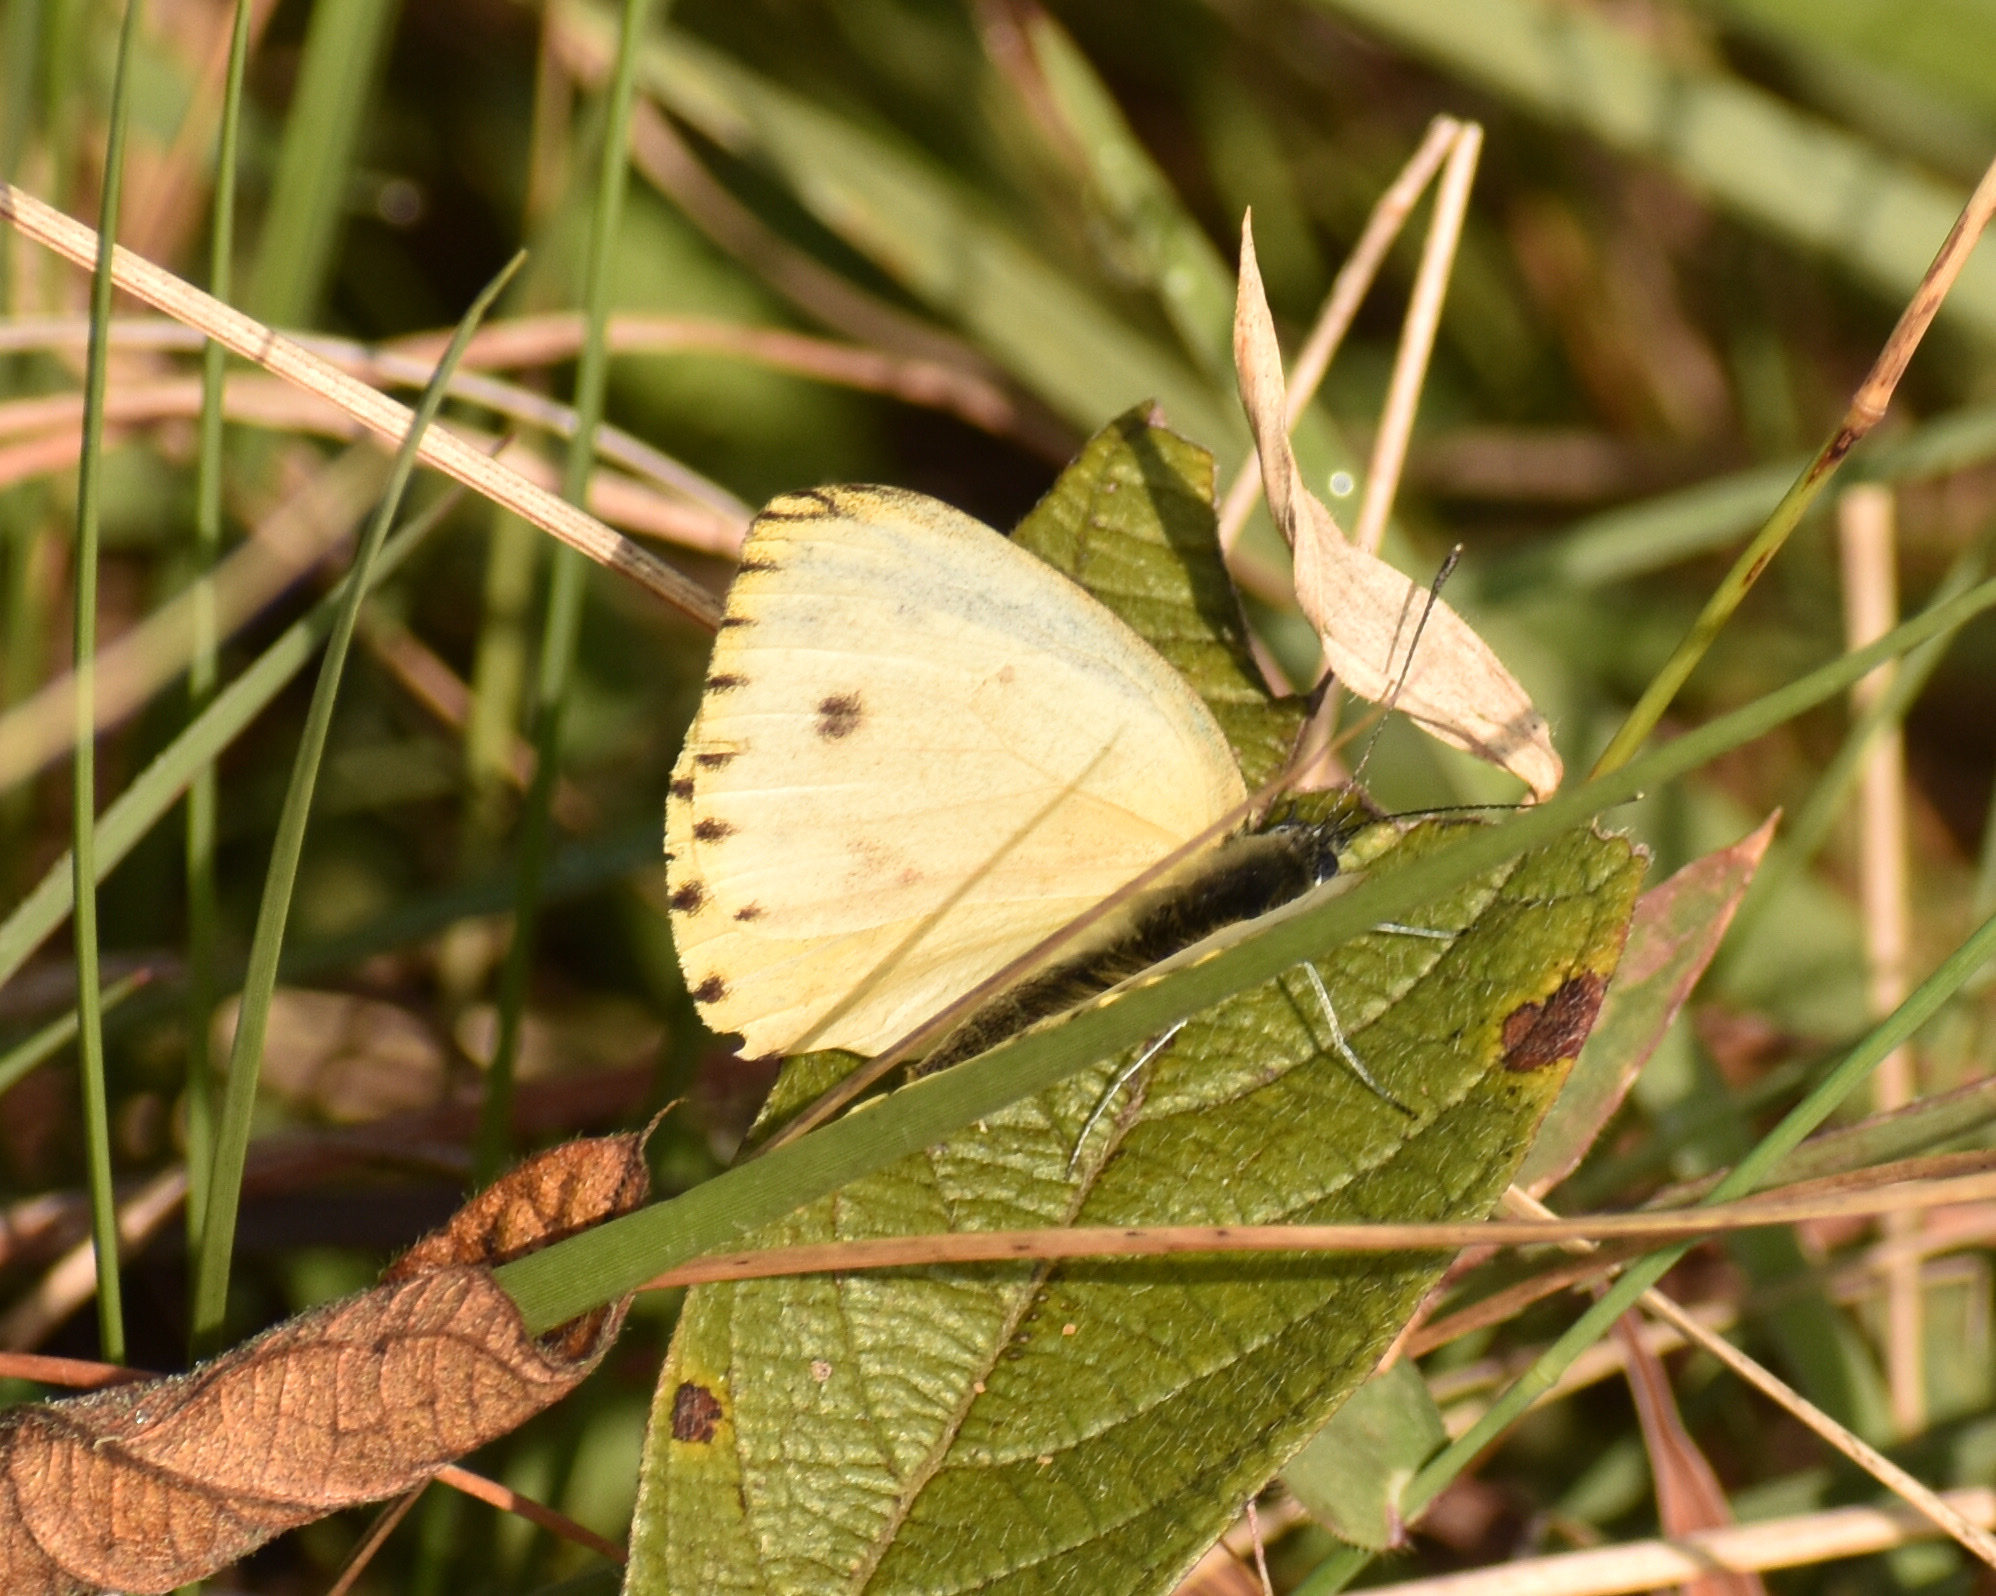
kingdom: Animalia
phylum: Arthropoda
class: Insecta
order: Lepidoptera
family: Pieridae
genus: Dixeia
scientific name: Dixeia pigea
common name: Ant-heap small white
